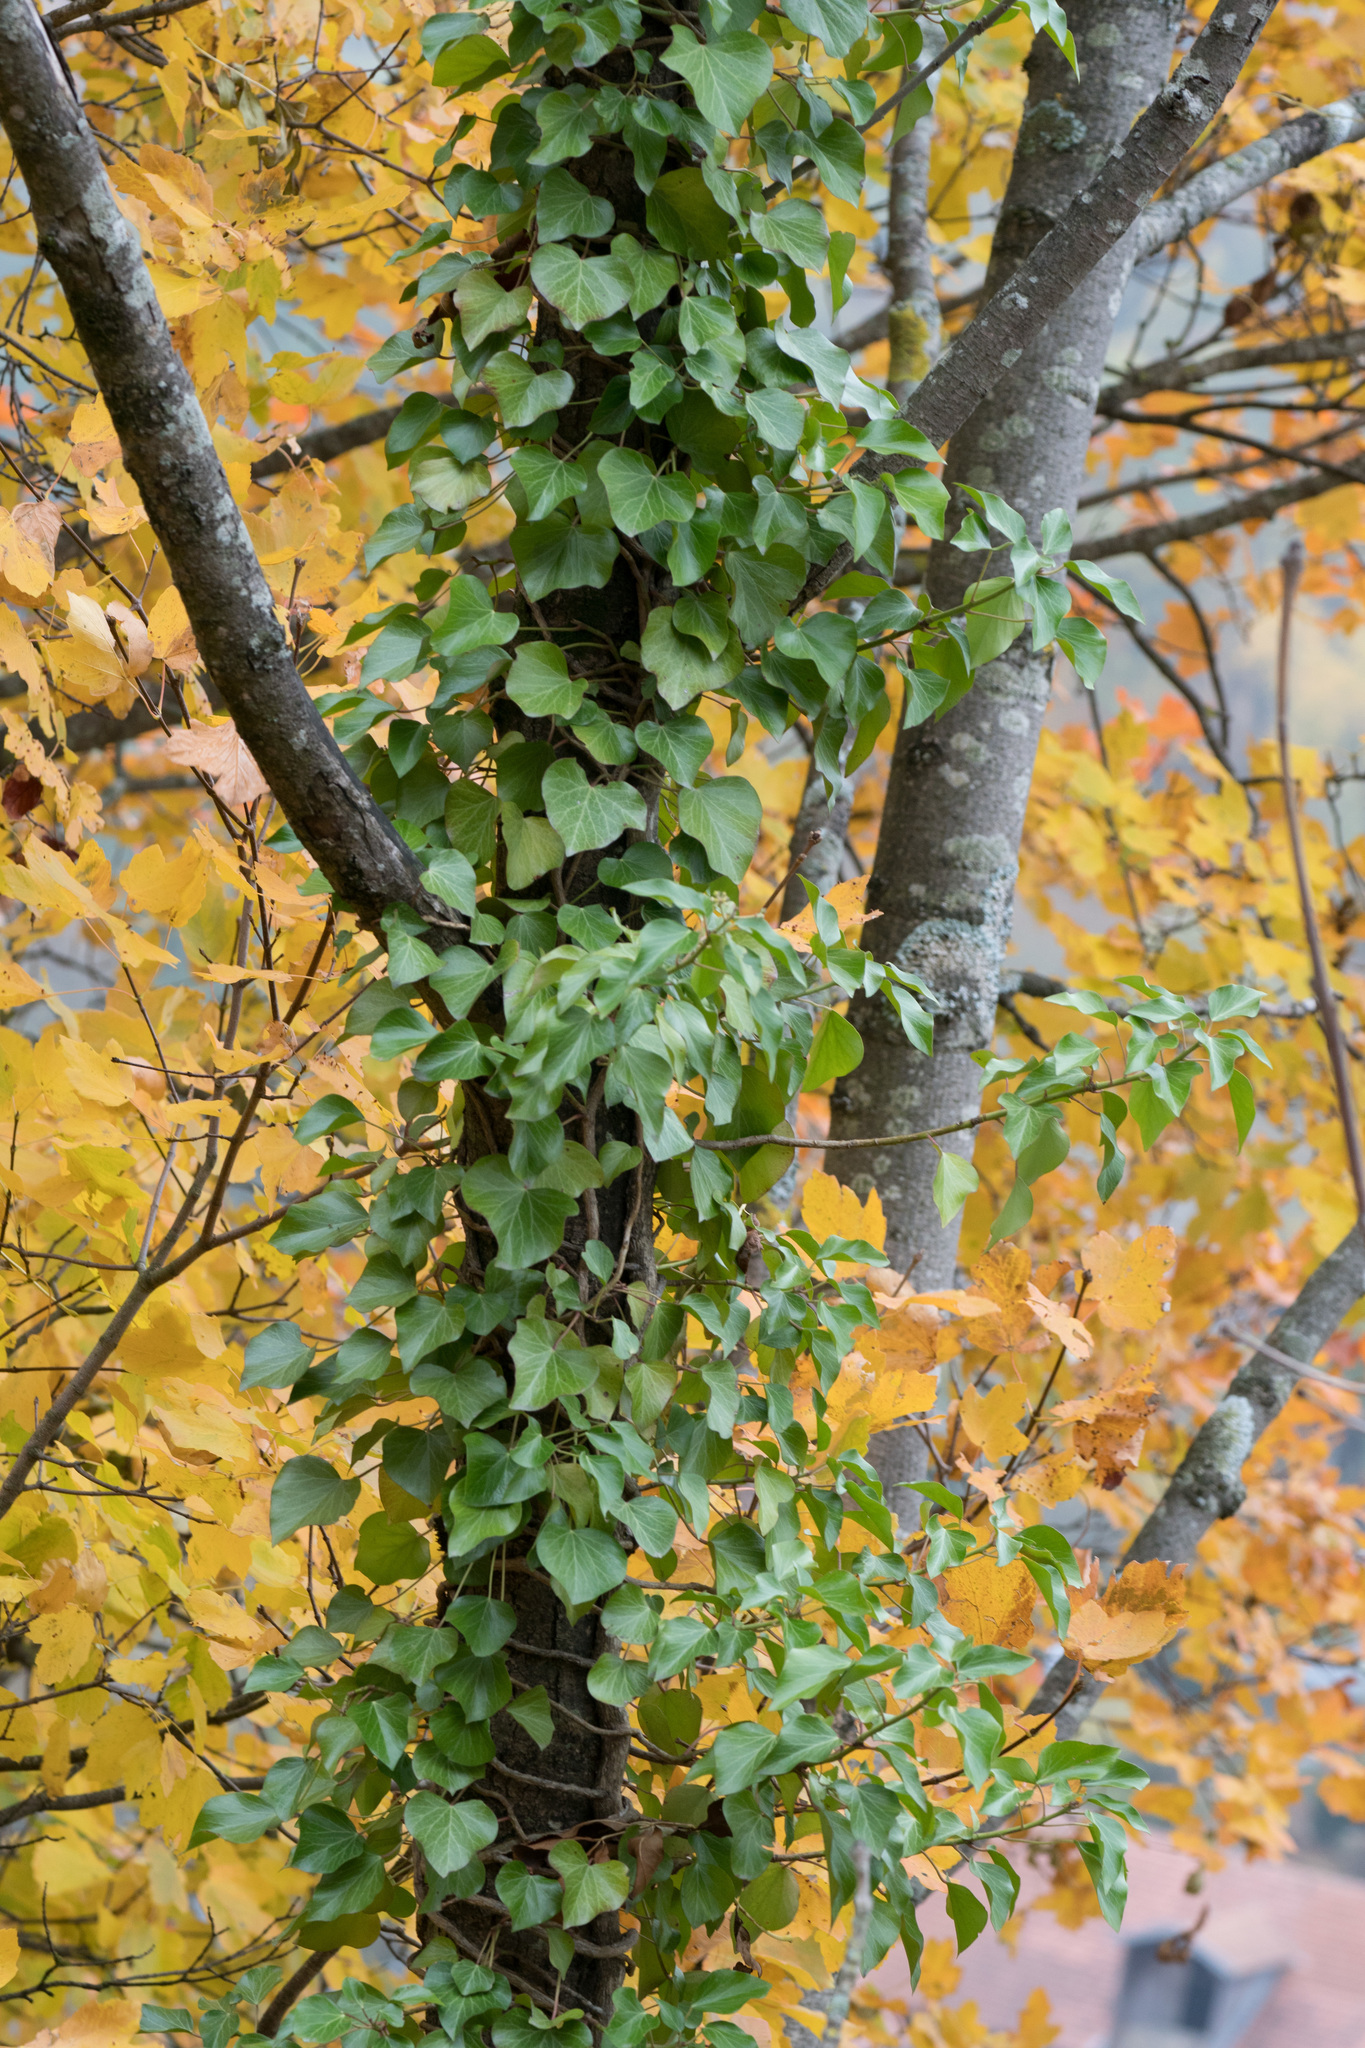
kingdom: Plantae
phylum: Tracheophyta
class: Magnoliopsida
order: Apiales
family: Araliaceae
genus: Hedera
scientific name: Hedera helix
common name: Ivy
